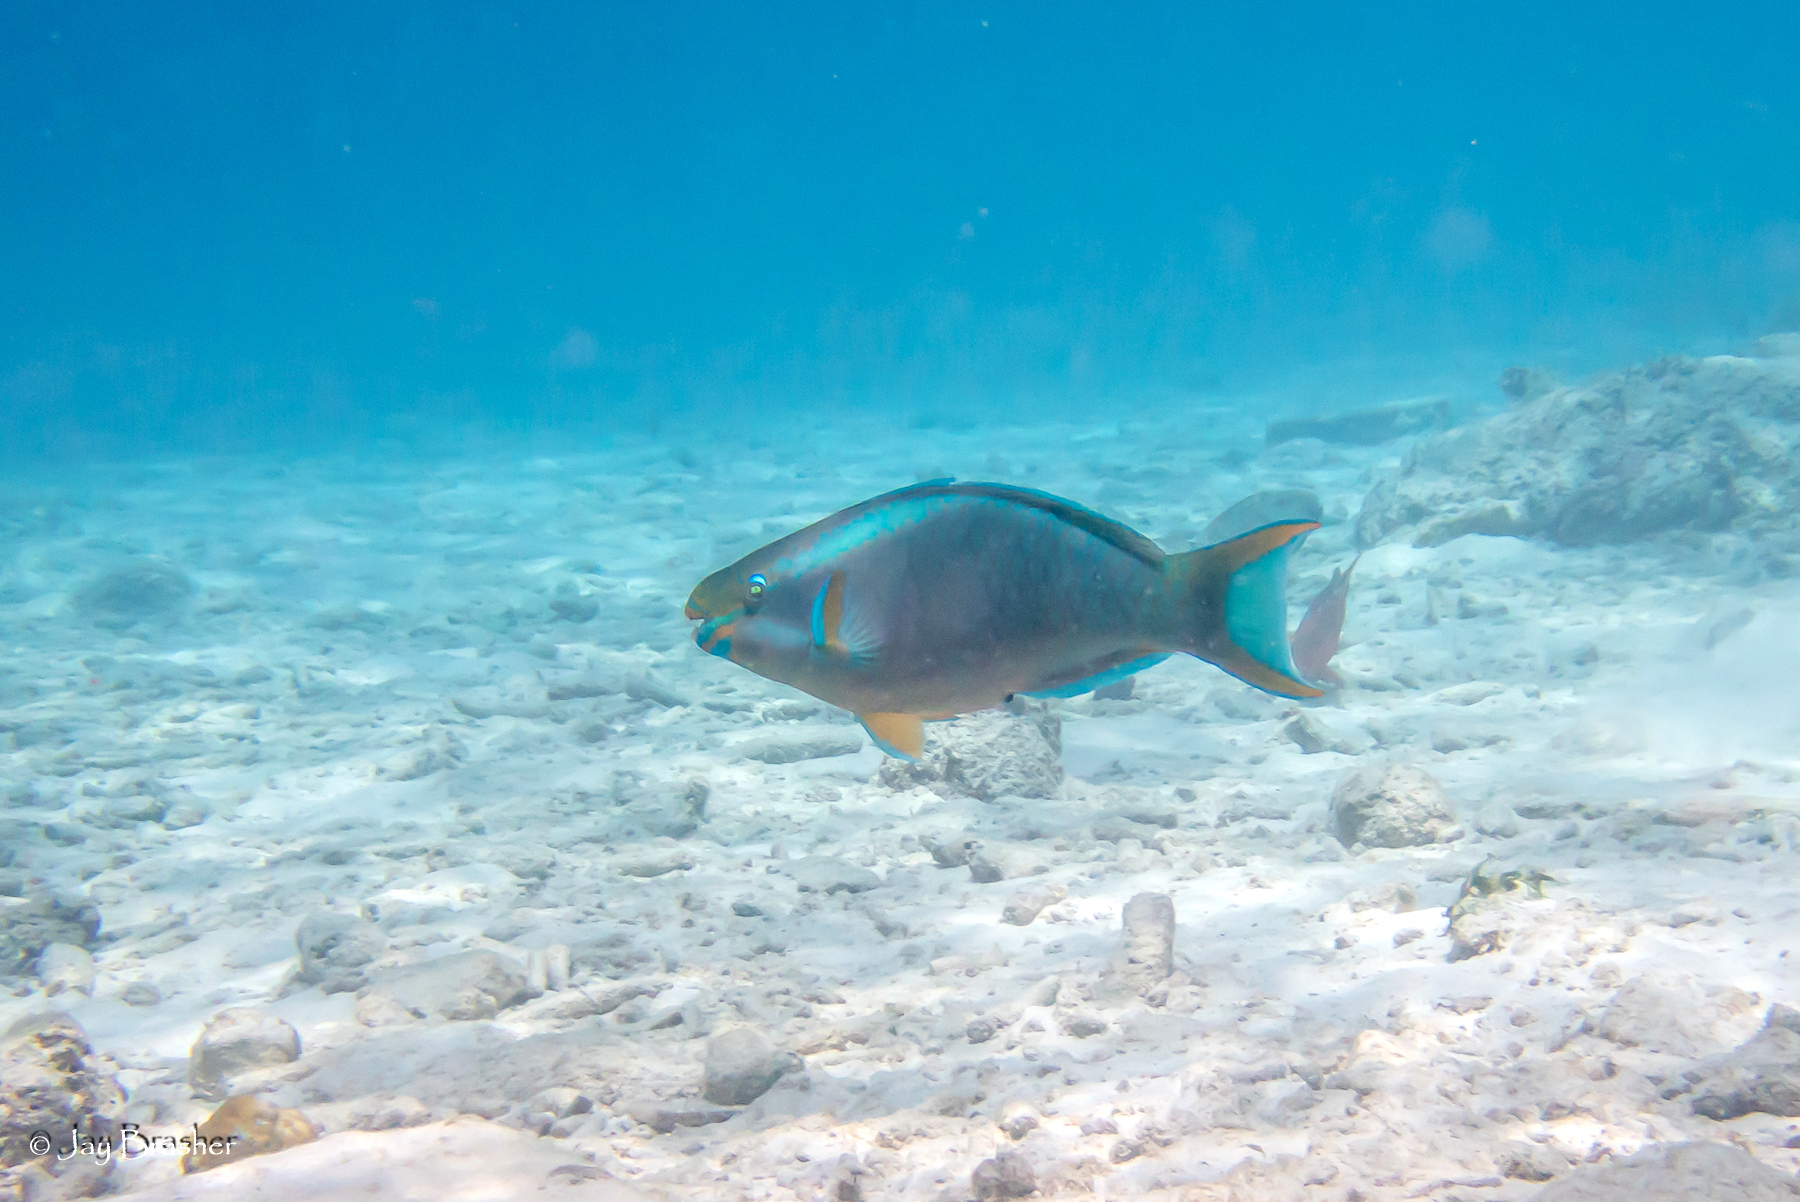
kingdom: Animalia
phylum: Chordata
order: Perciformes
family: Scaridae
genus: Scarus
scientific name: Scarus vetula
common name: Queen parrotfish
